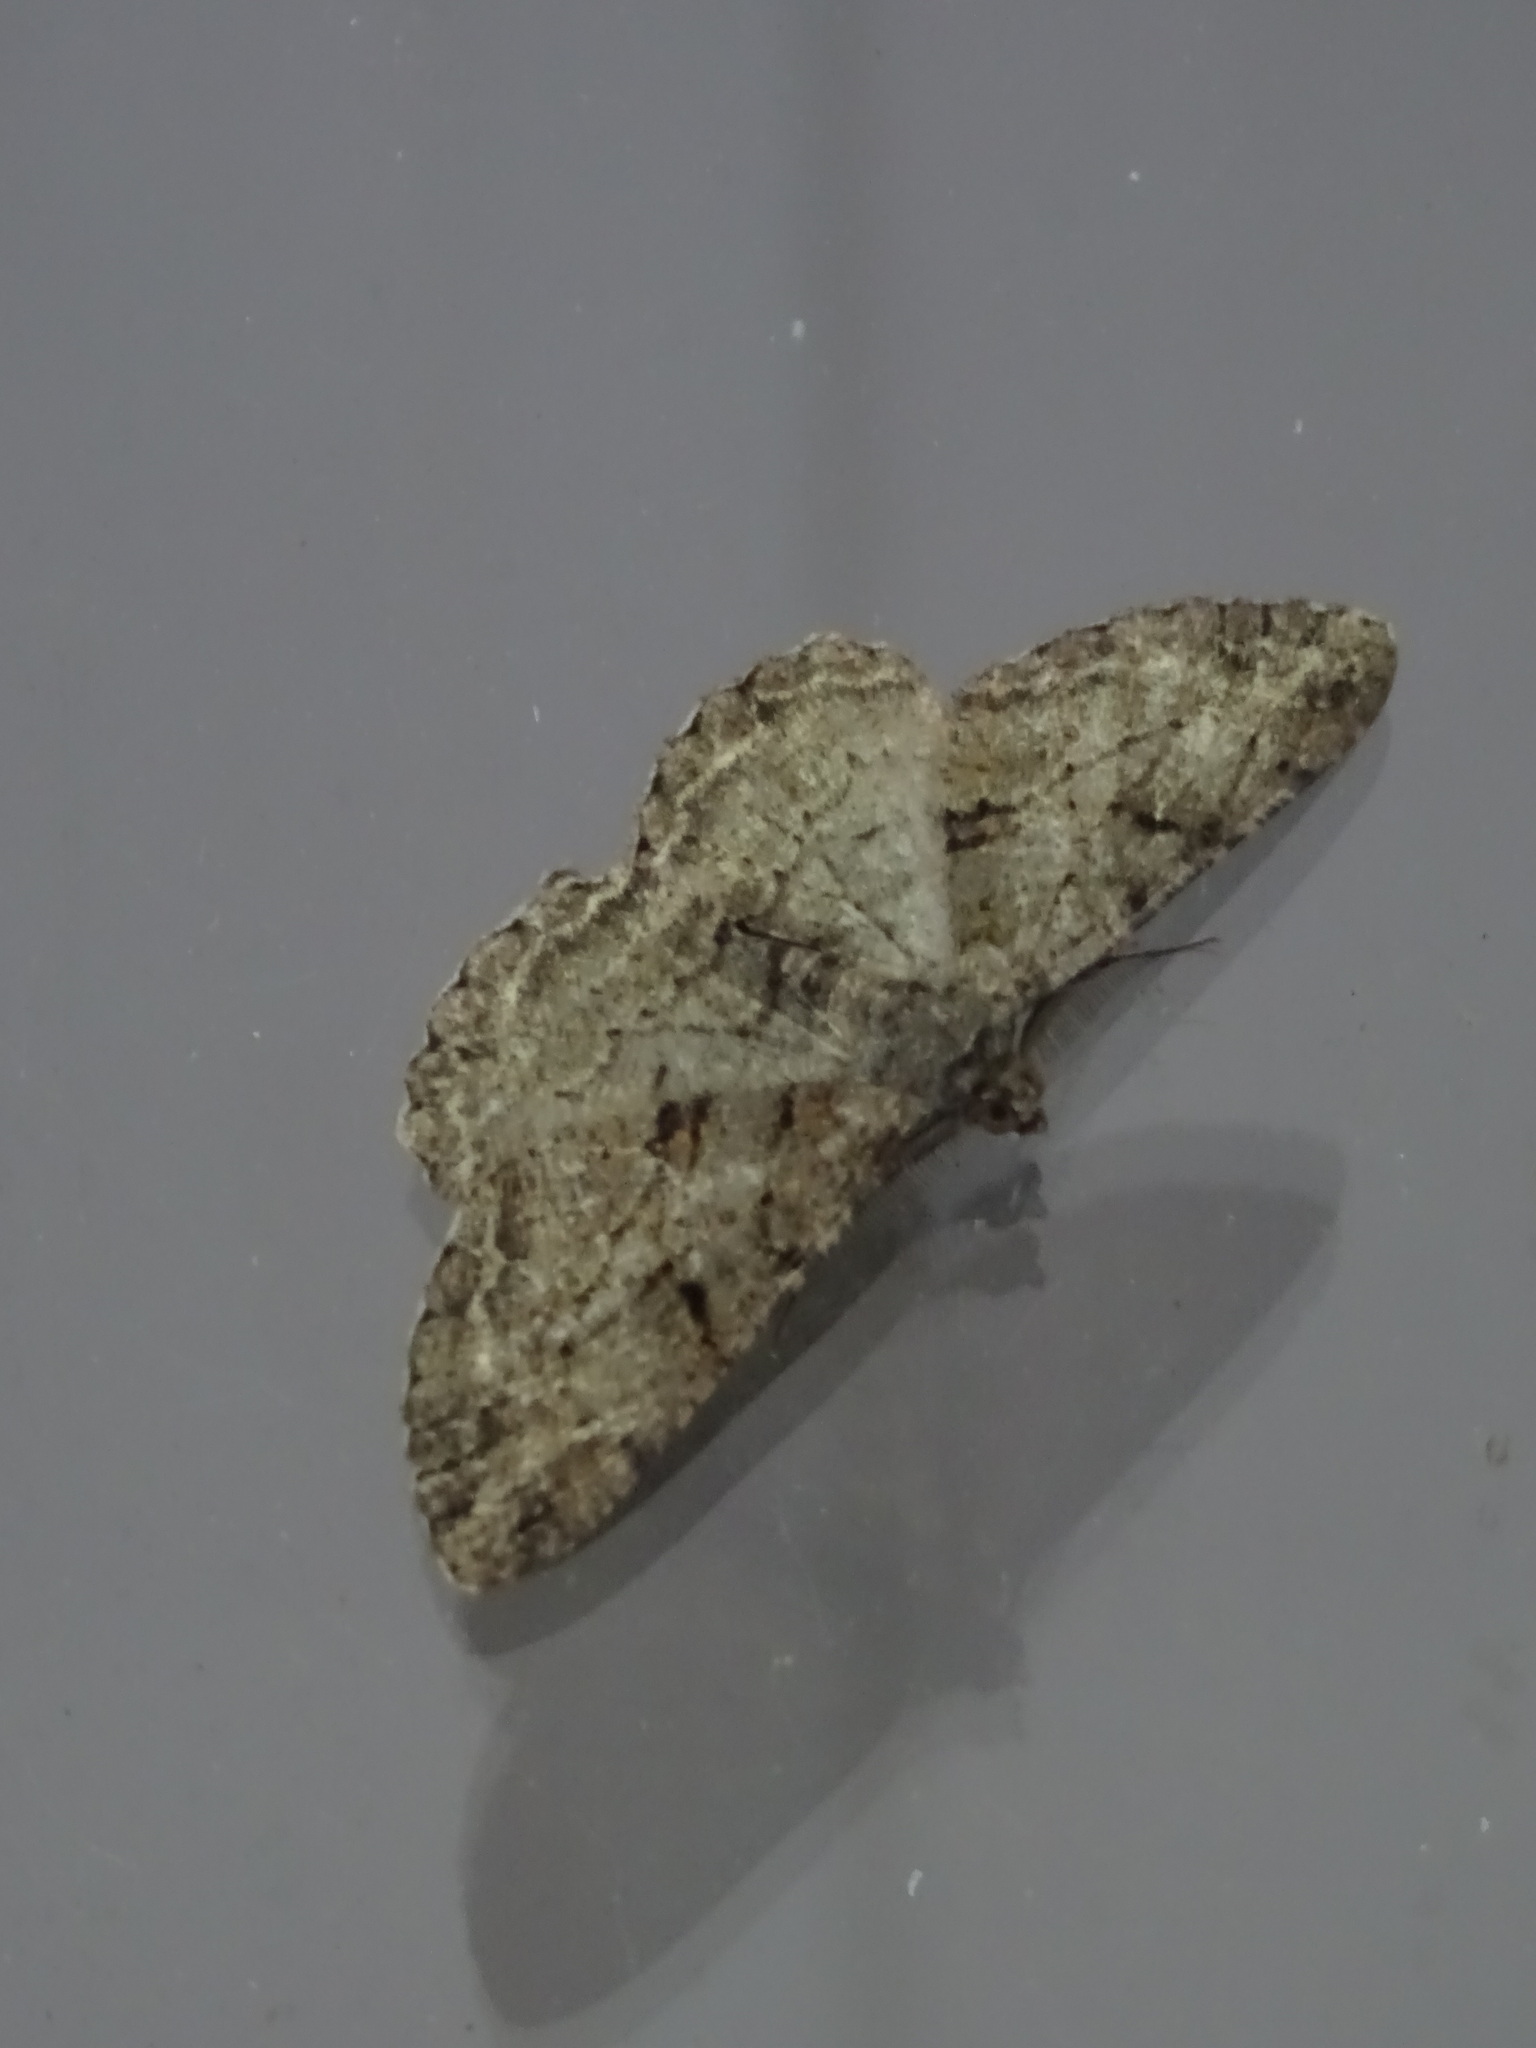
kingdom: Animalia
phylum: Arthropoda
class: Insecta
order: Lepidoptera
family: Geometridae
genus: Peribatodes
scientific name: Peribatodes rhomboidaria
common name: Willow beauty
